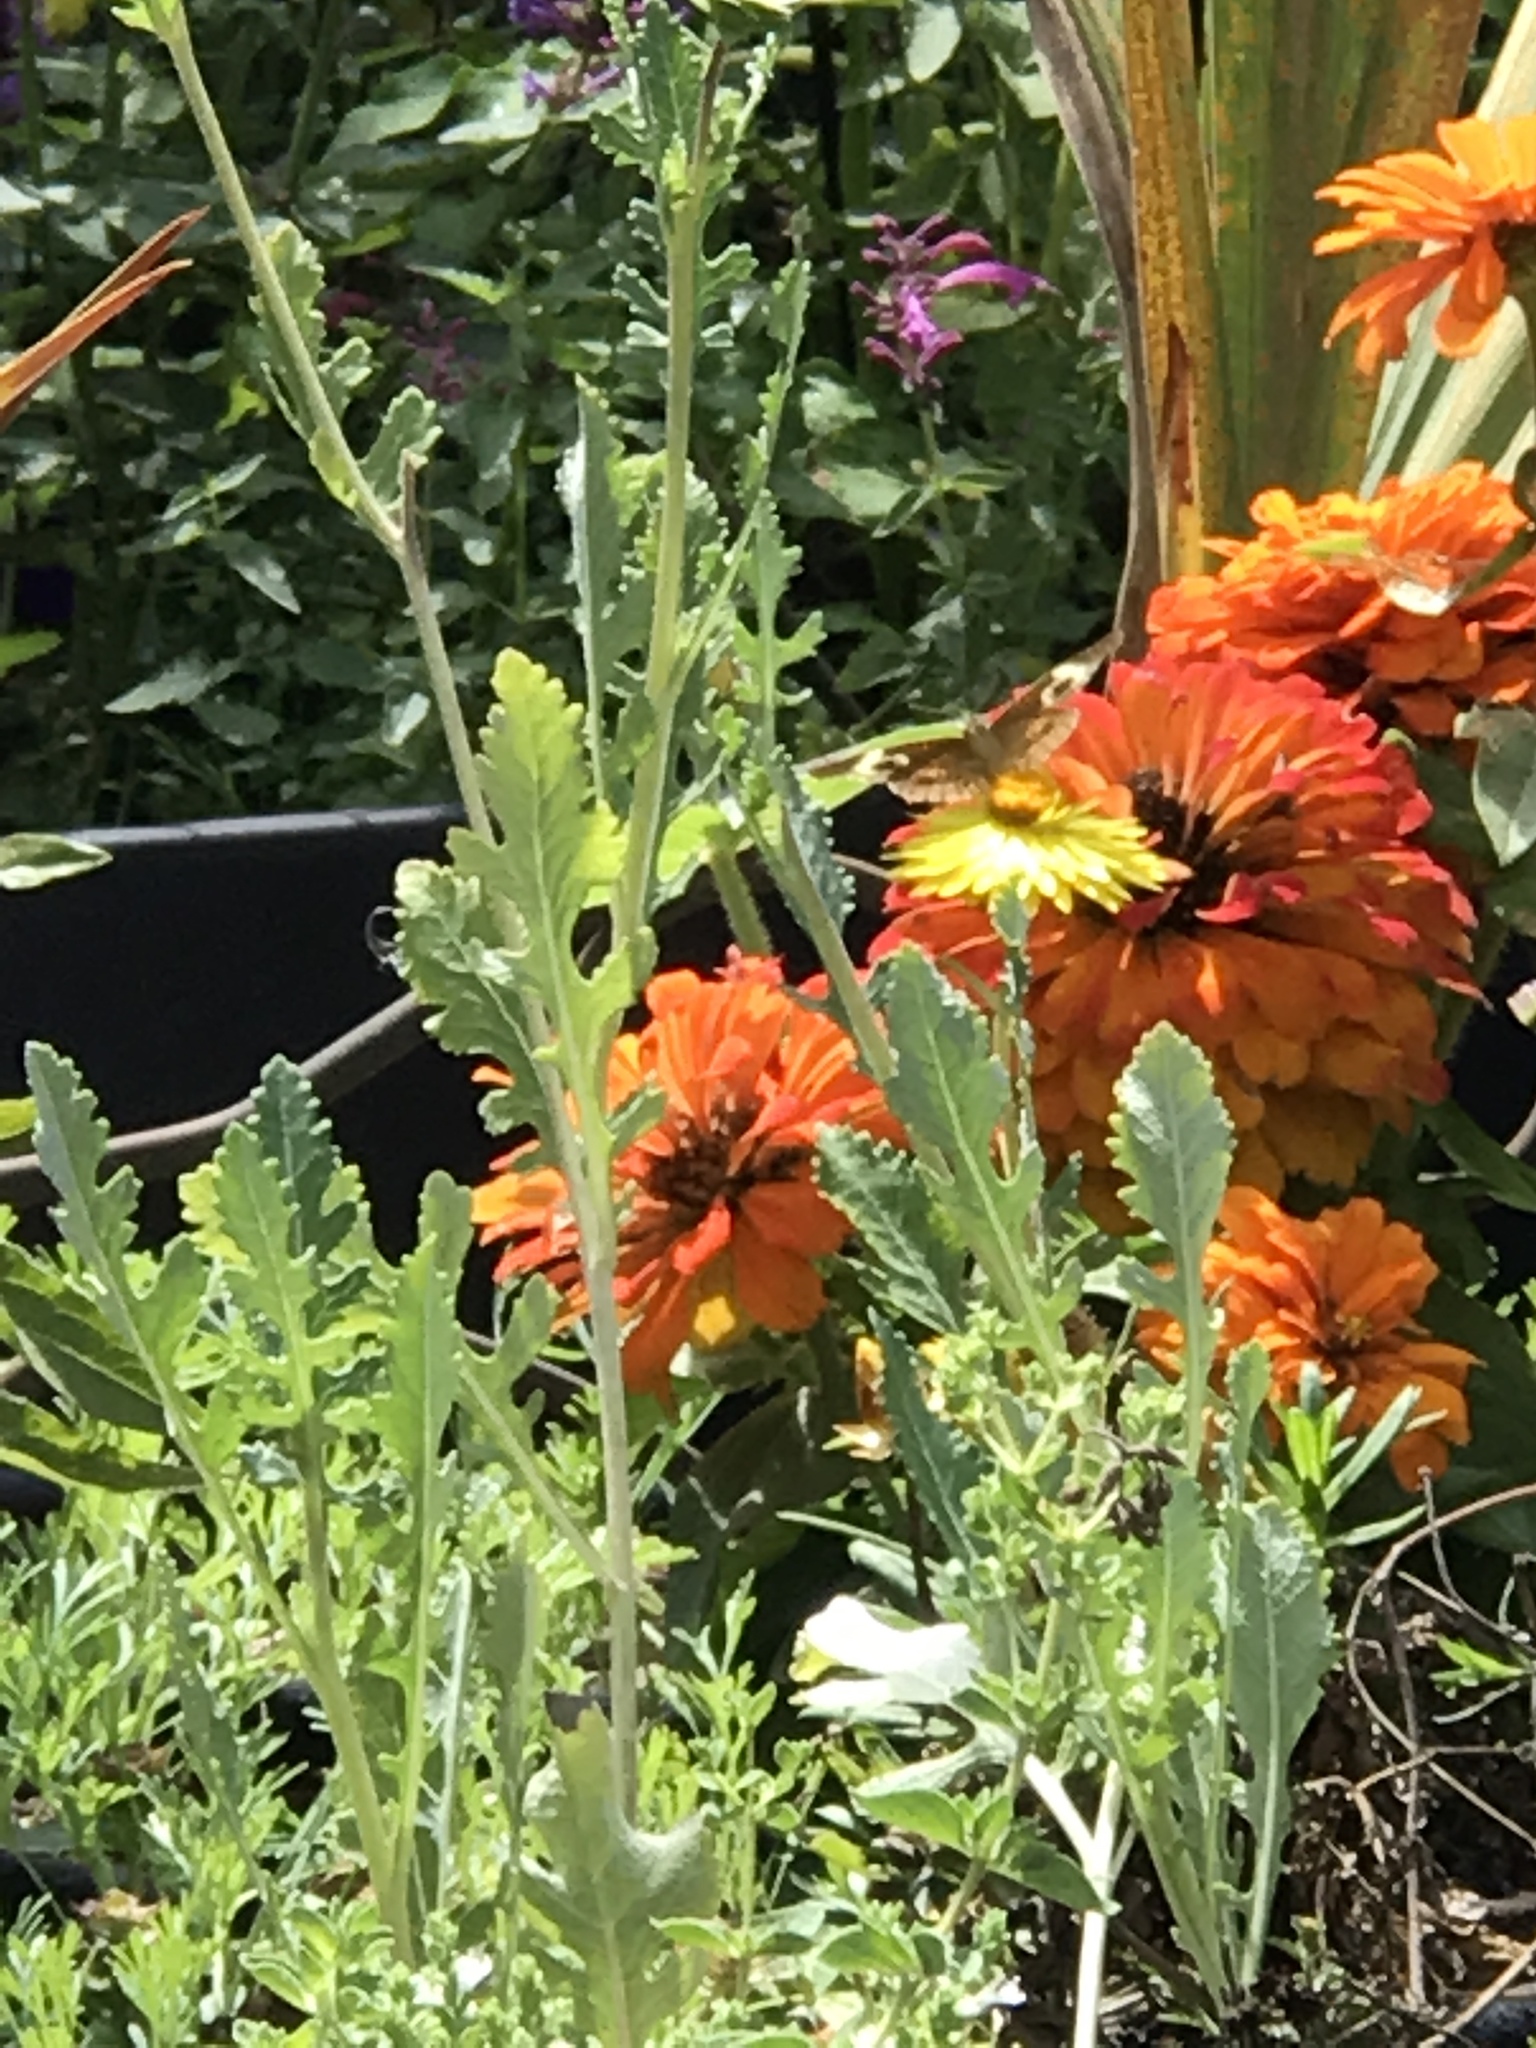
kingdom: Animalia
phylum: Arthropoda
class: Insecta
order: Lepidoptera
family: Nymphalidae
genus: Junonia
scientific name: Junonia grisea
